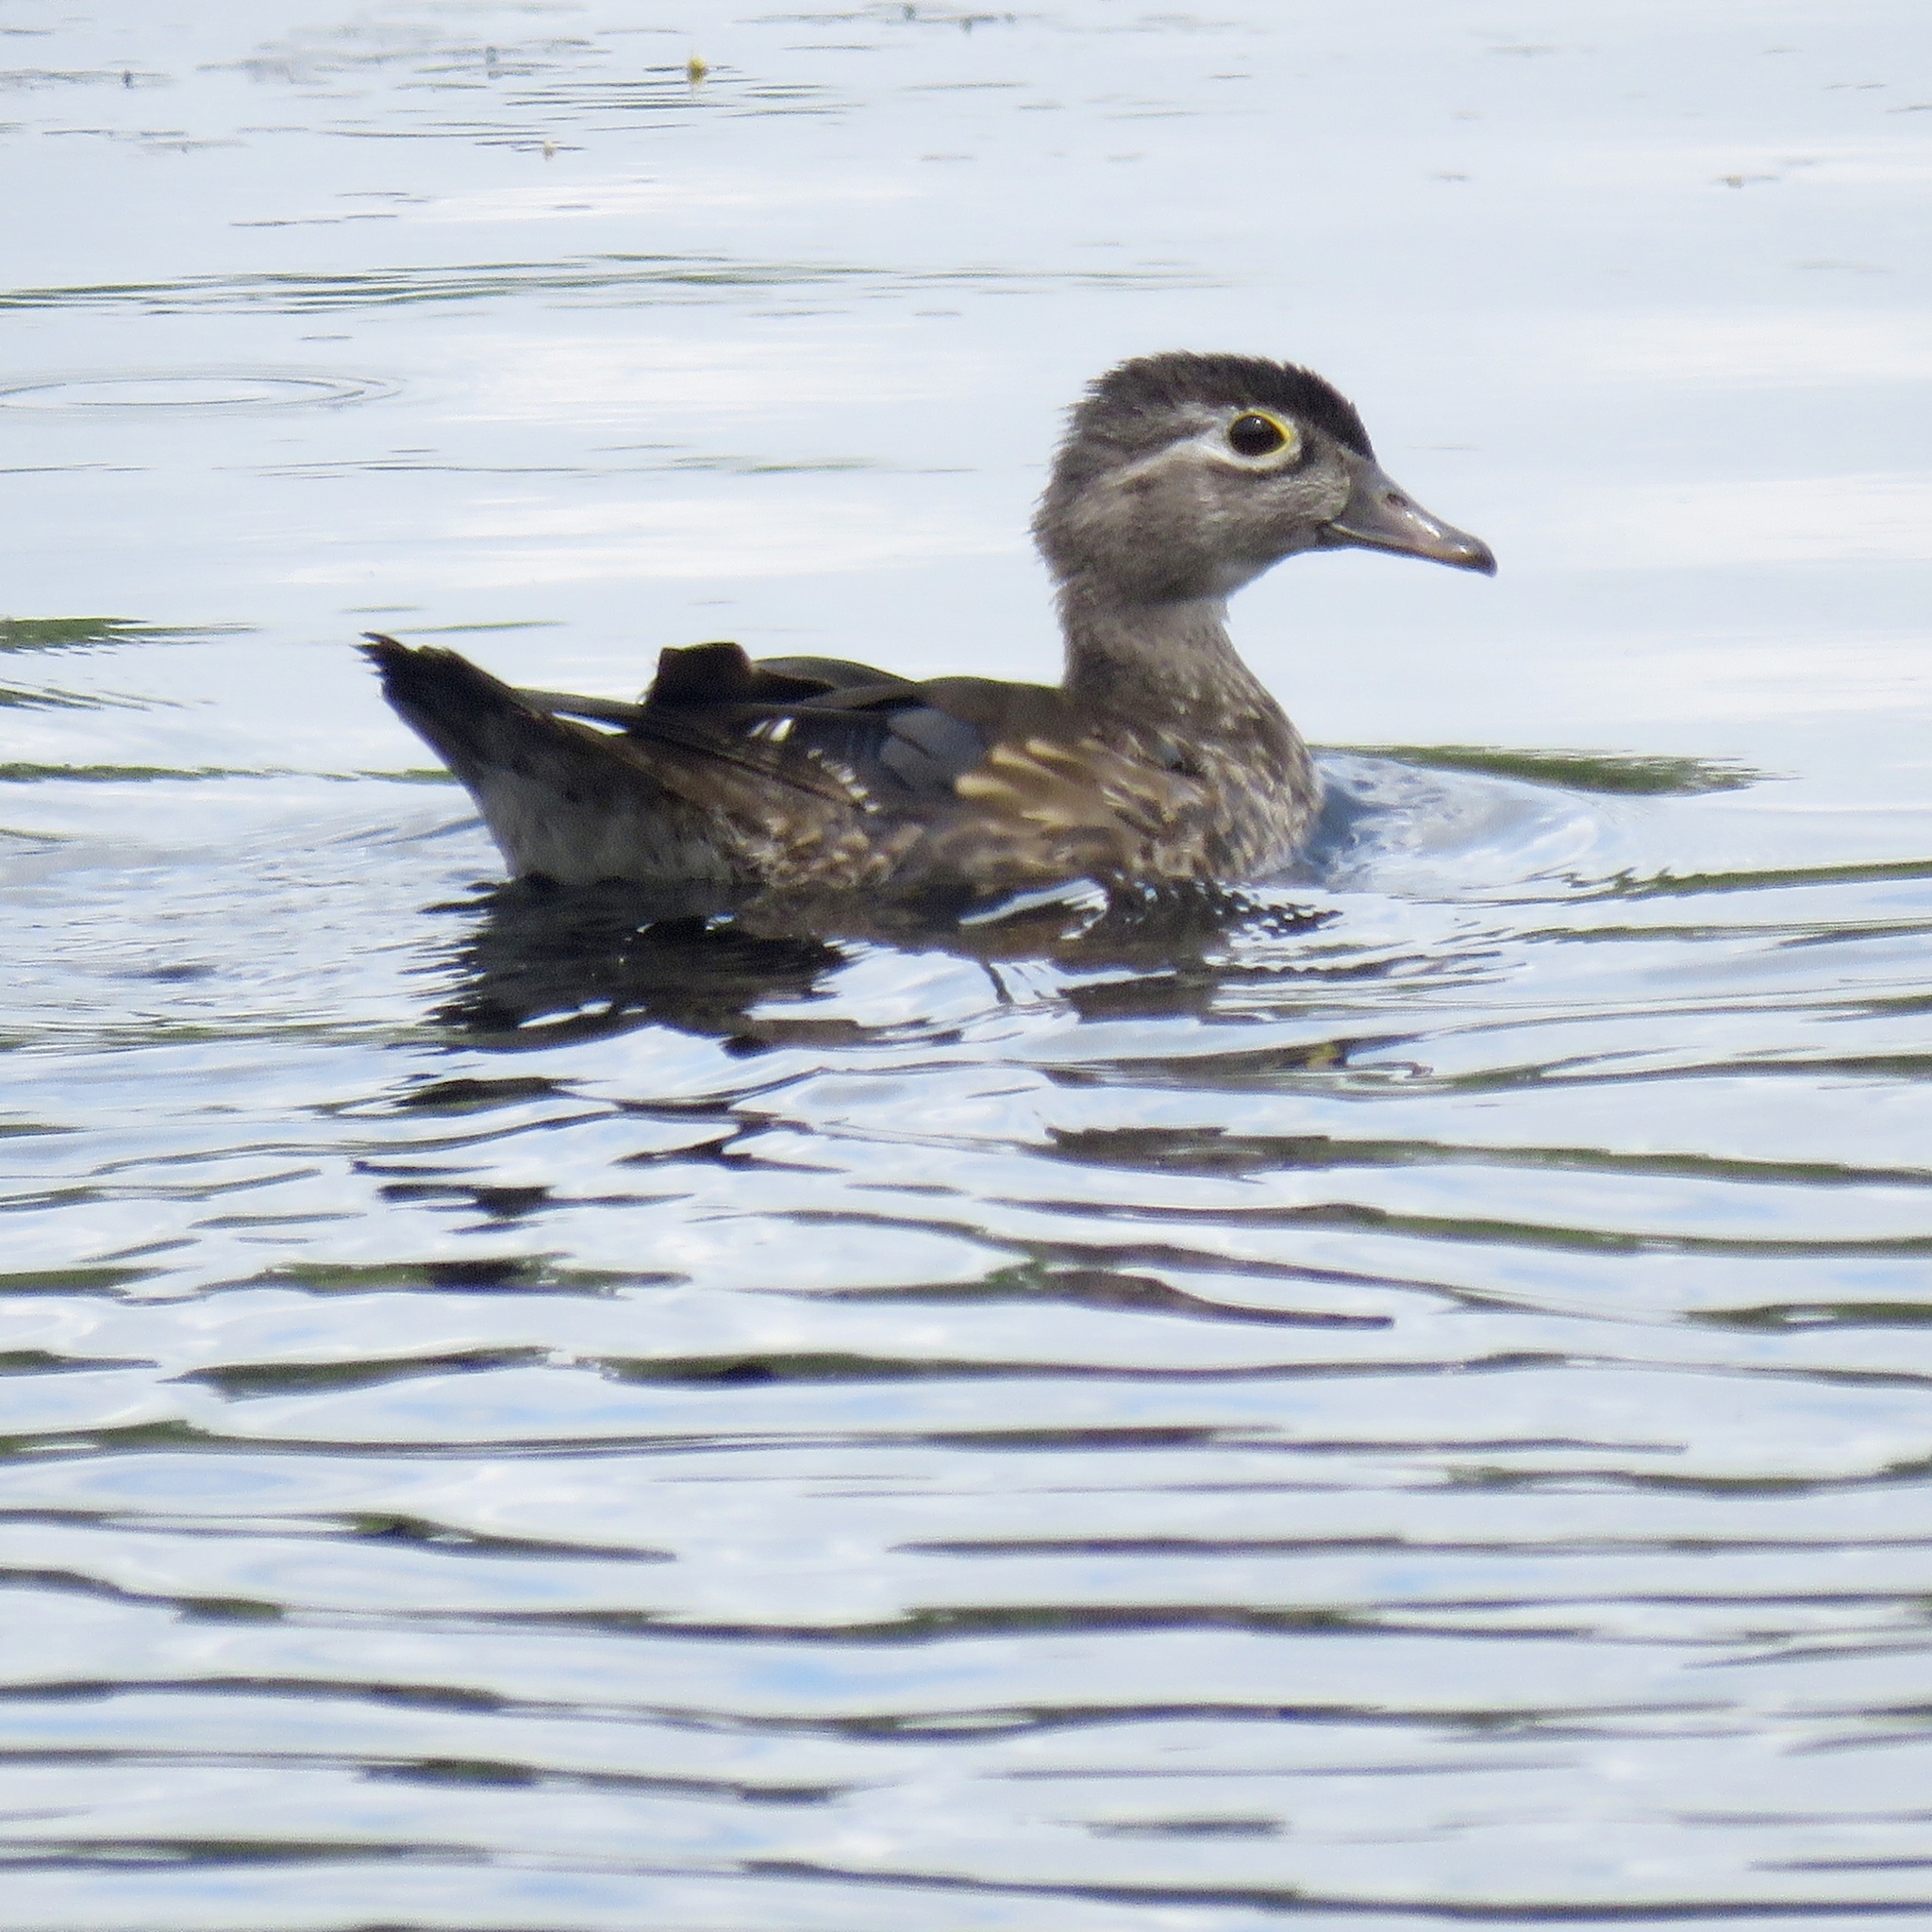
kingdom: Animalia
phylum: Chordata
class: Aves
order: Anseriformes
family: Anatidae
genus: Aix
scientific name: Aix sponsa
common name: Wood duck
